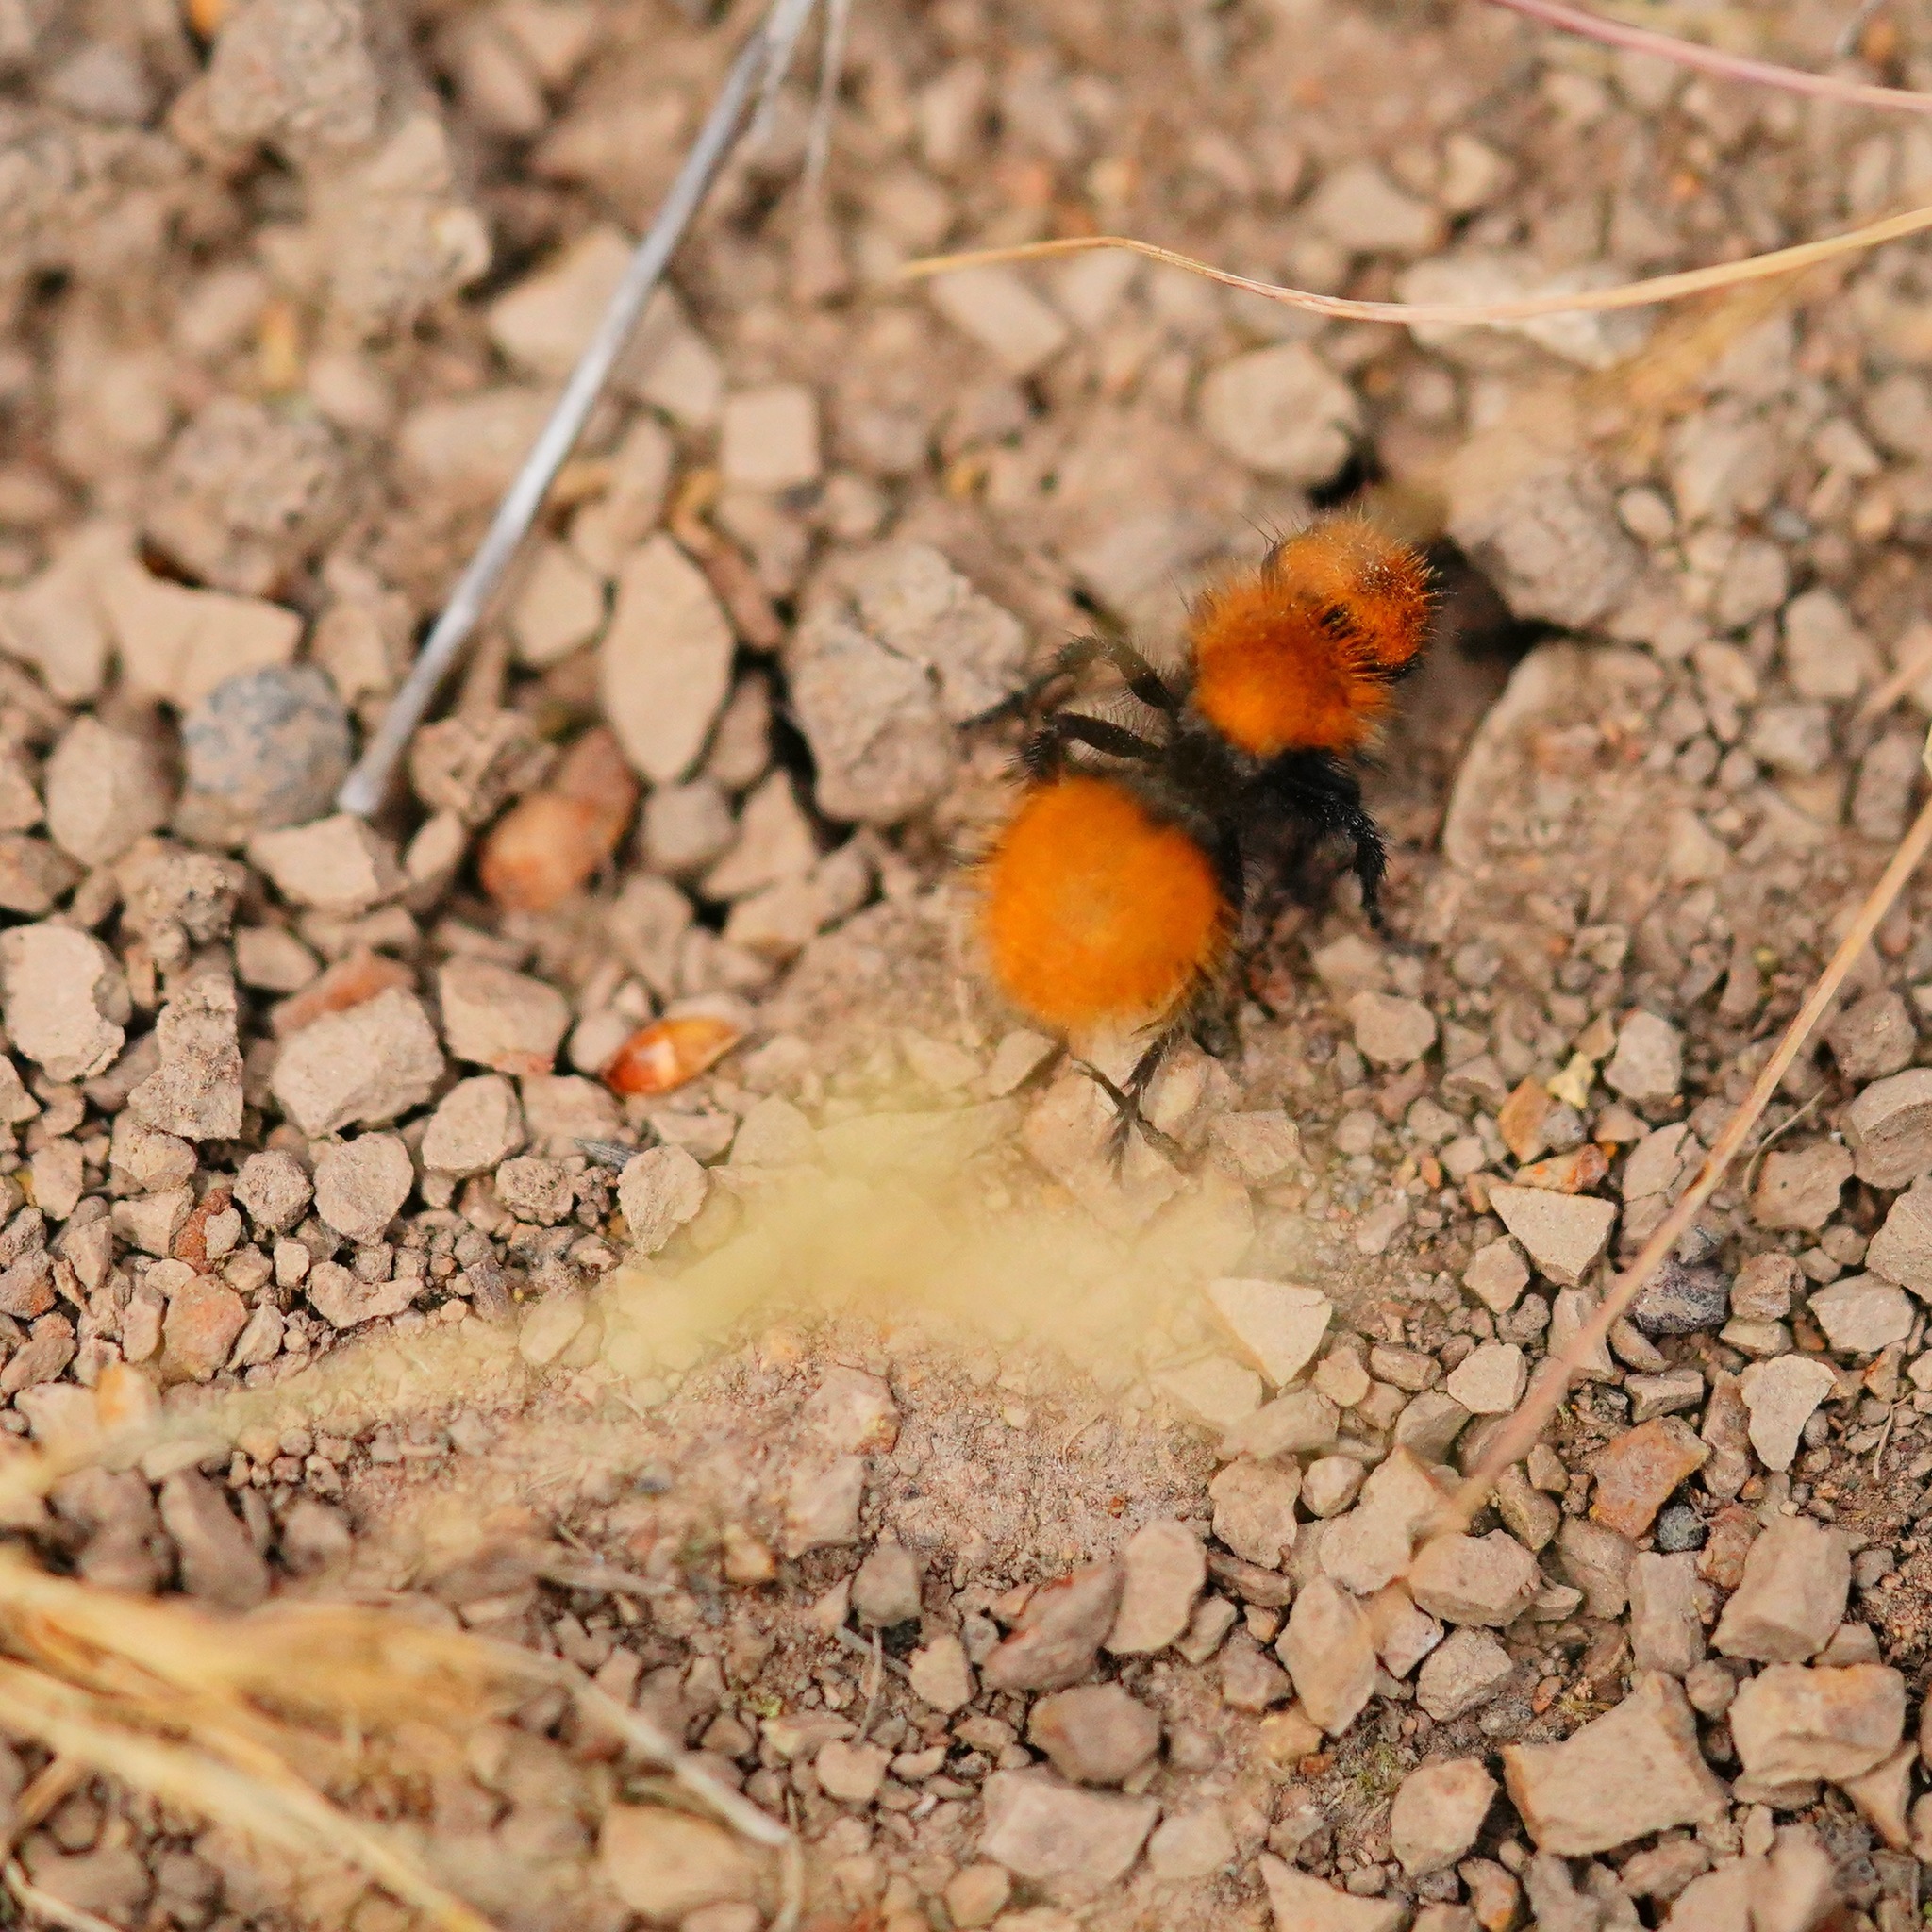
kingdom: Animalia
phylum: Arthropoda
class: Insecta
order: Hymenoptera
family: Mutillidae
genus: Dasymutilla
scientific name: Dasymutilla
